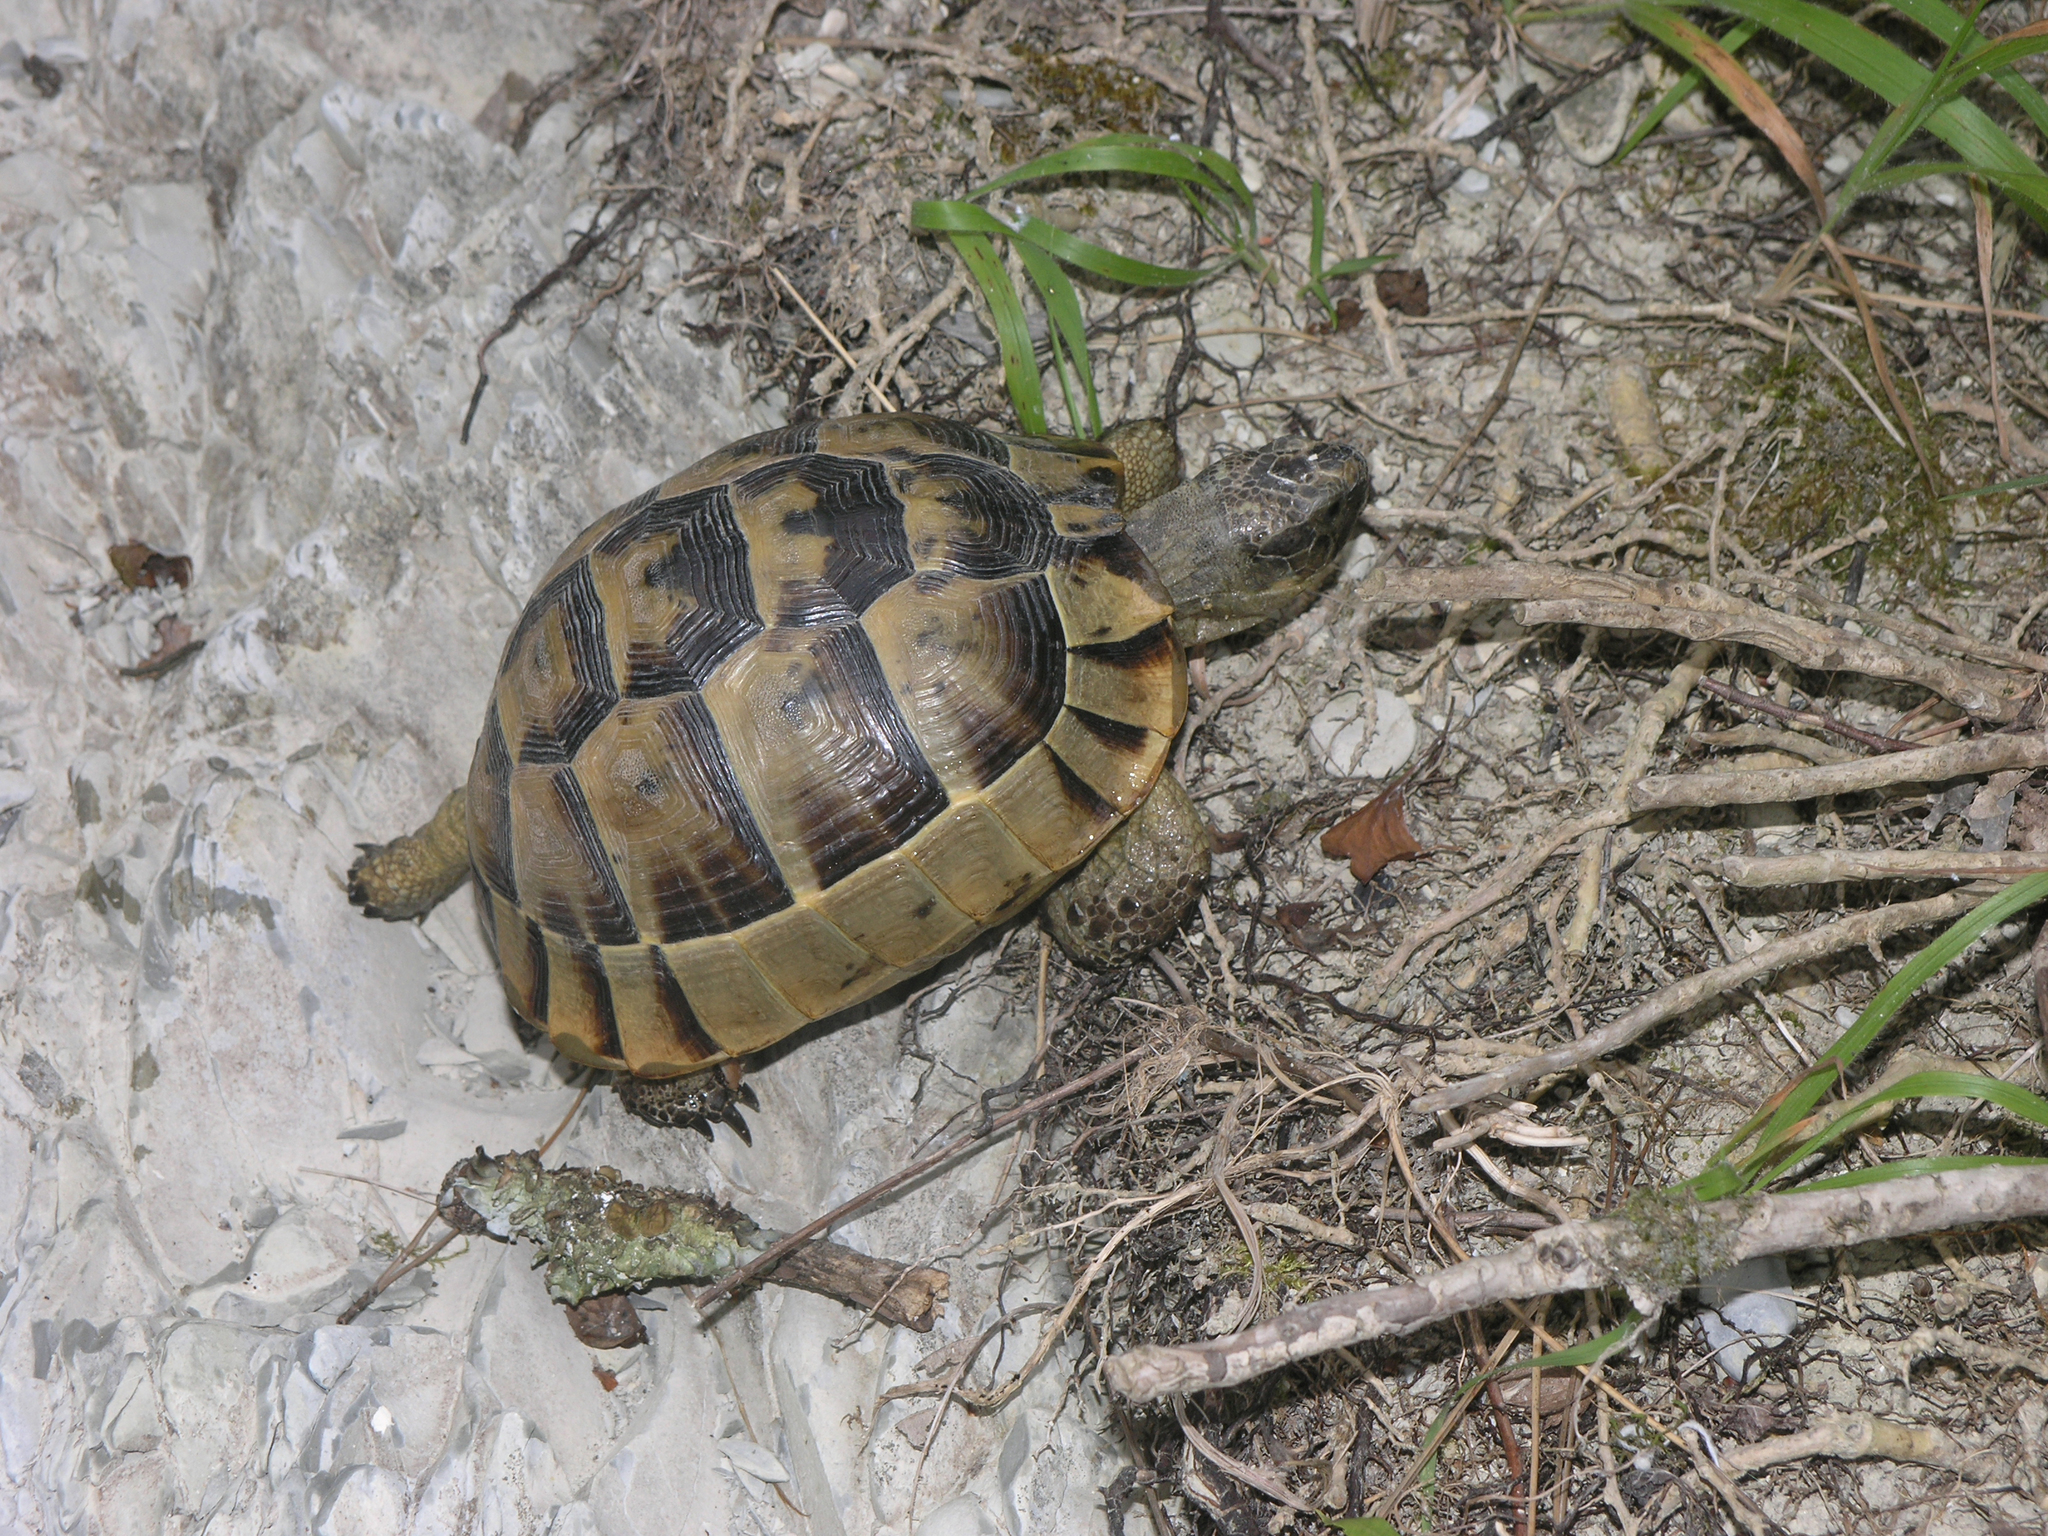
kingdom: Animalia
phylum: Chordata
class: Testudines
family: Testudinidae
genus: Testudo
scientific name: Testudo graeca
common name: Common tortoise
